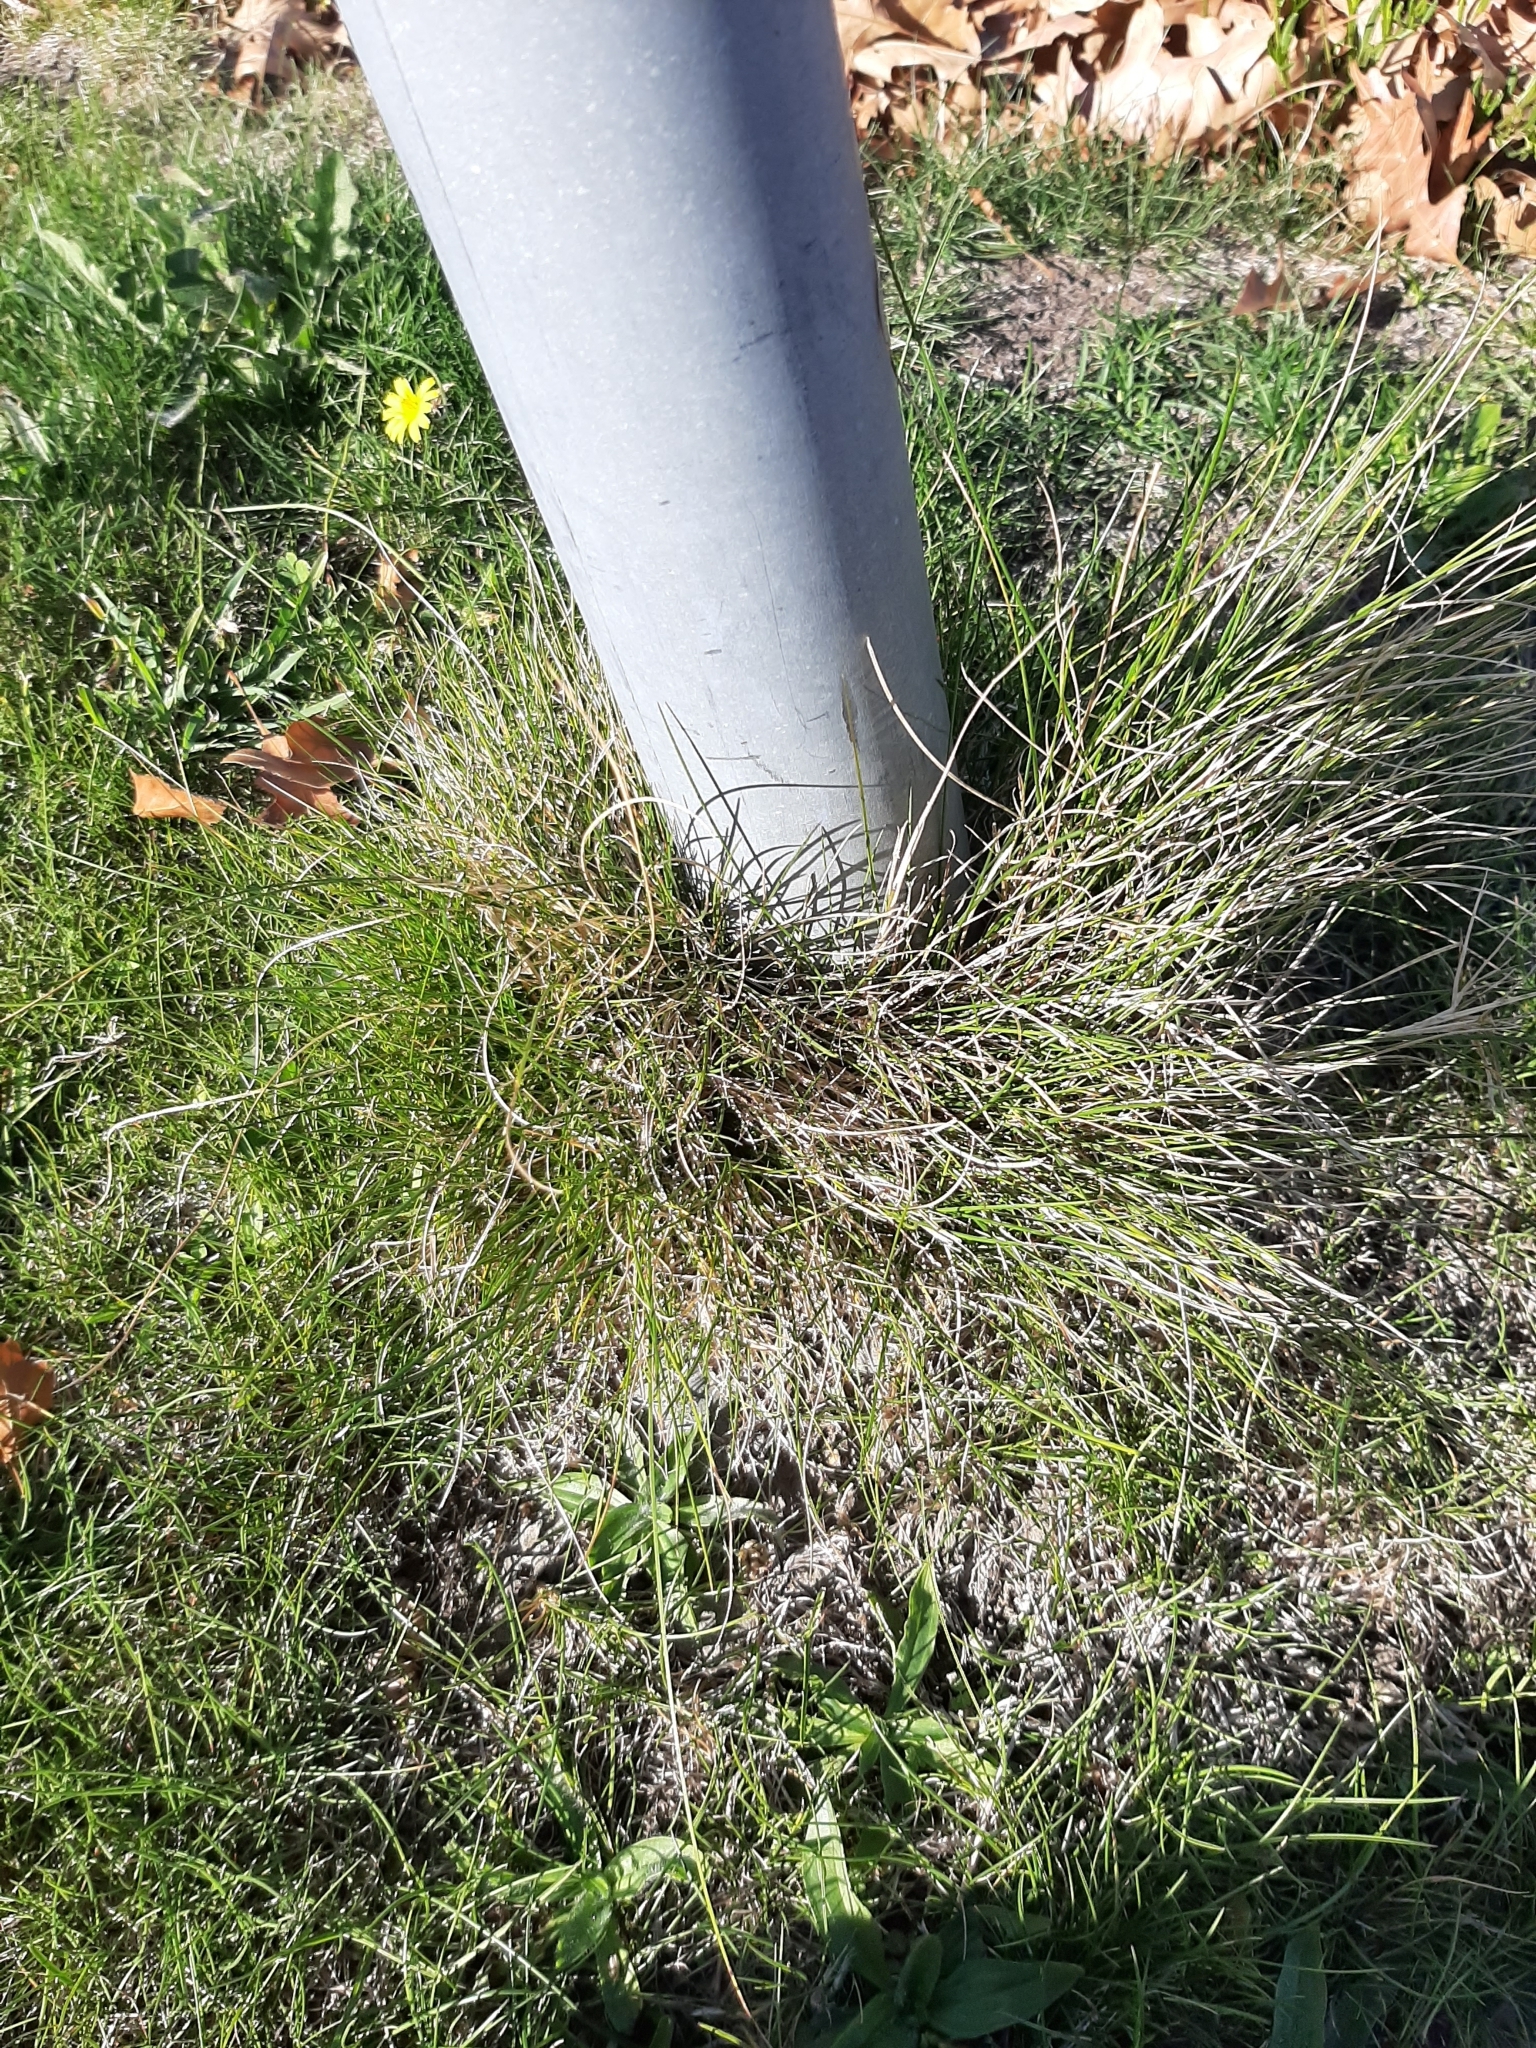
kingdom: Plantae
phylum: Tracheophyta
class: Liliopsida
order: Poales
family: Poaceae
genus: Festuca
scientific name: Festuca rubra
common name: Red fescue
